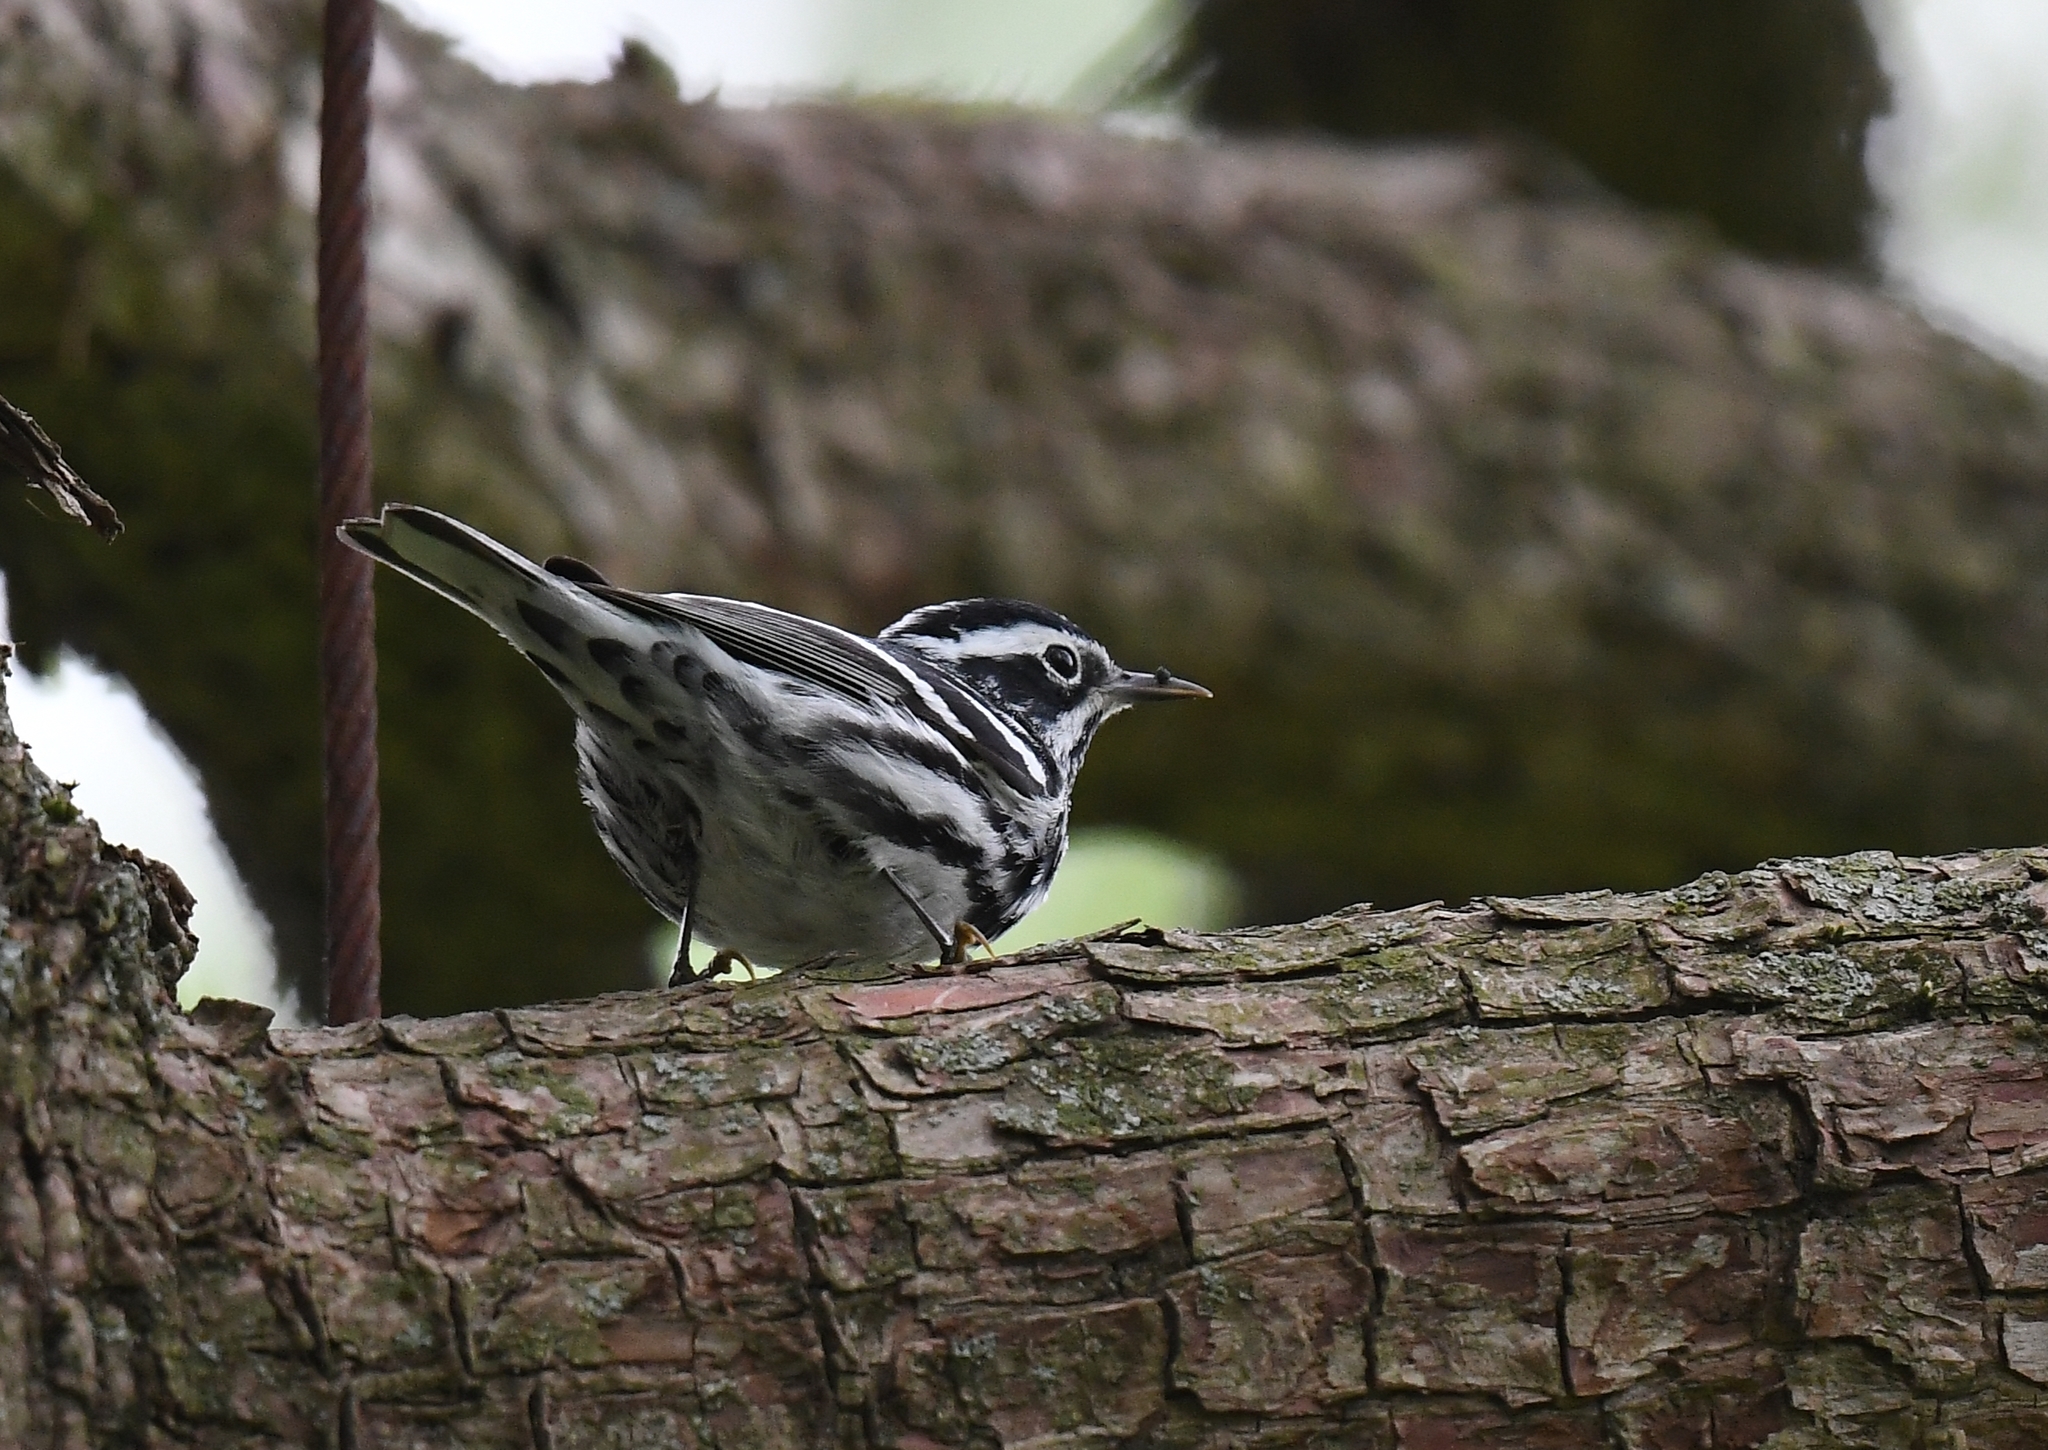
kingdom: Animalia
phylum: Chordata
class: Aves
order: Passeriformes
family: Parulidae
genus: Mniotilta
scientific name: Mniotilta varia
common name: Black-and-white warbler
